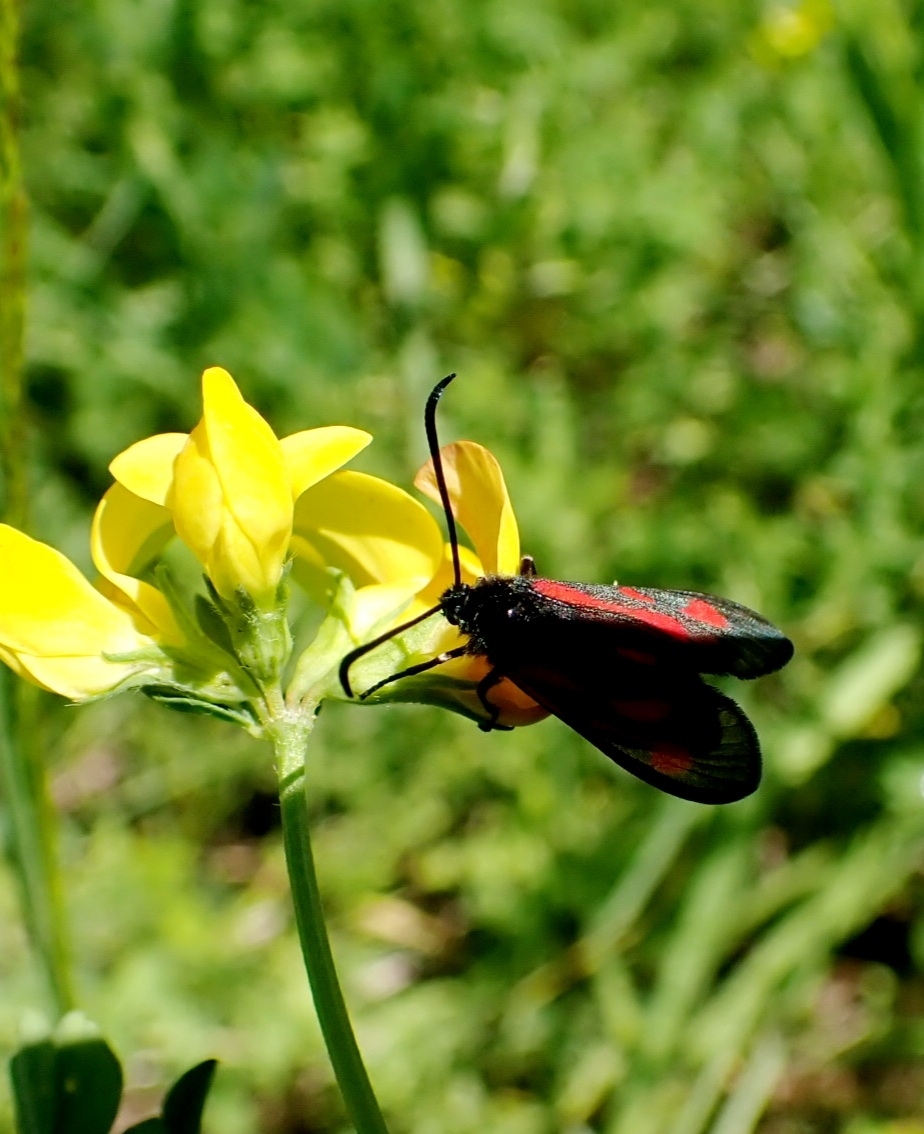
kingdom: Animalia
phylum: Arthropoda
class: Insecta
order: Lepidoptera
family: Zygaenidae
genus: Zygaena
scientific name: Zygaena osterodensis
